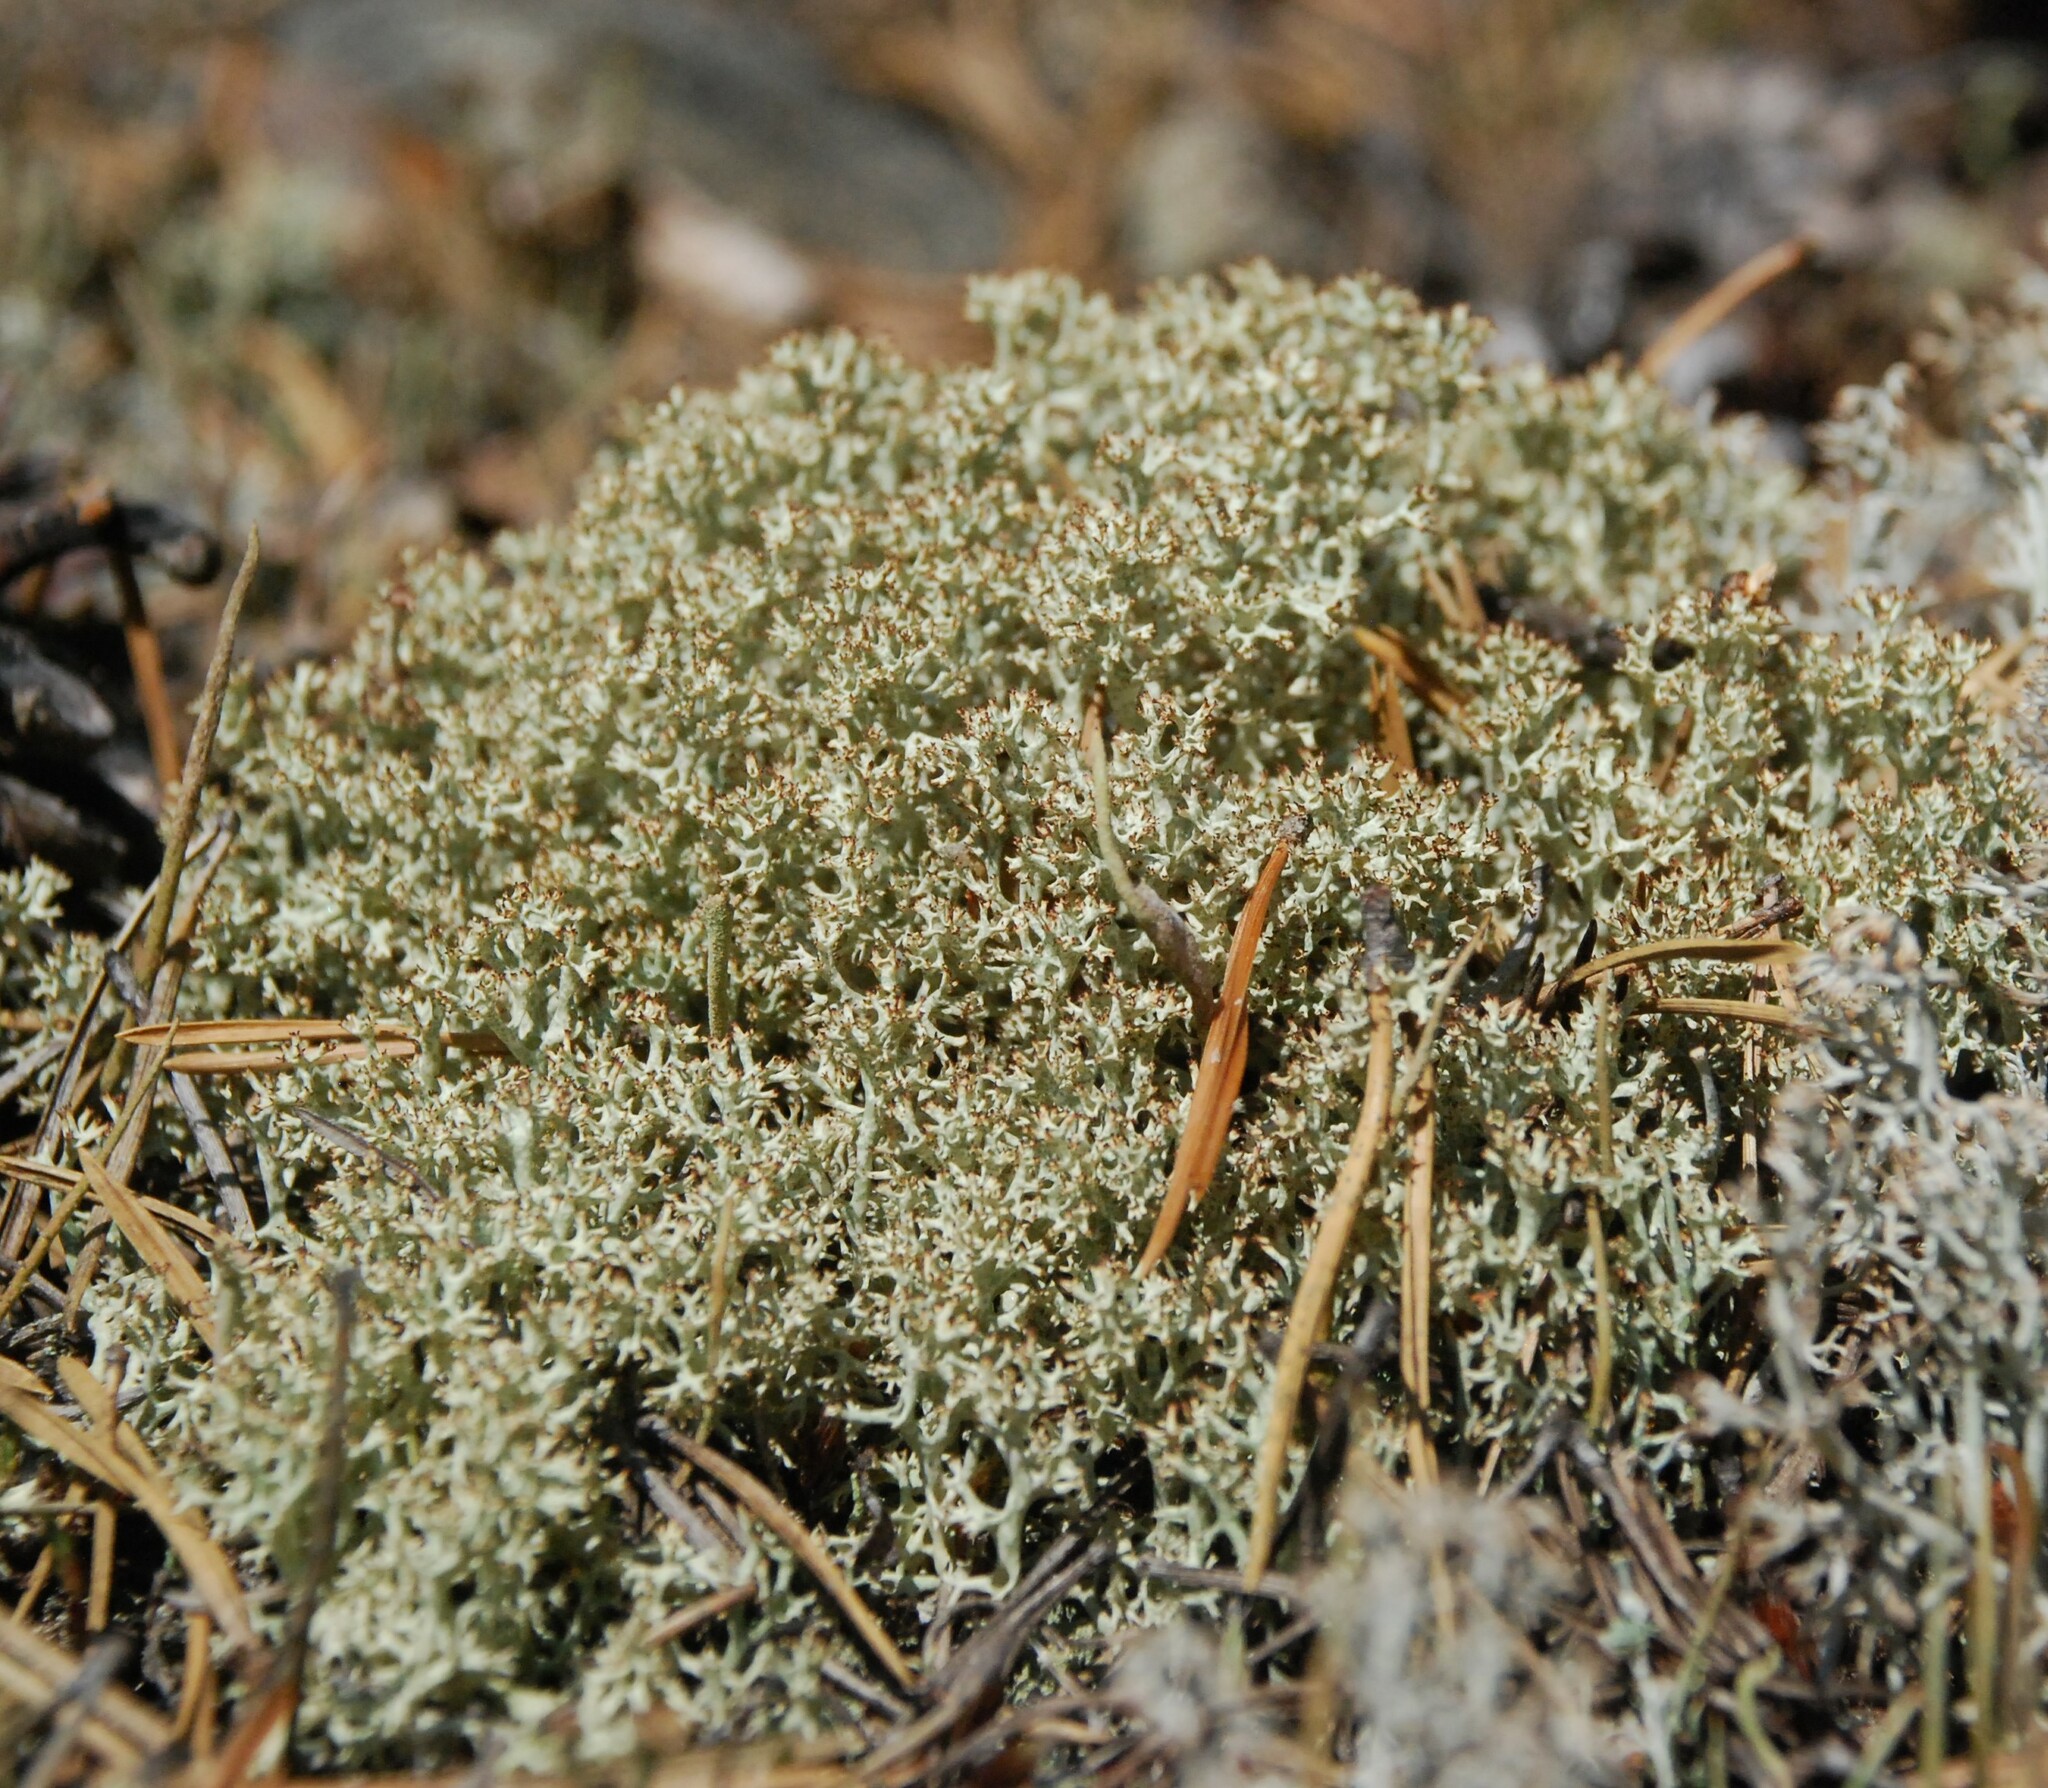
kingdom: Fungi
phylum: Ascomycota
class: Lecanoromycetes
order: Lecanorales
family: Cladoniaceae
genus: Cladonia
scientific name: Cladonia uncialis
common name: Thorn lichen
